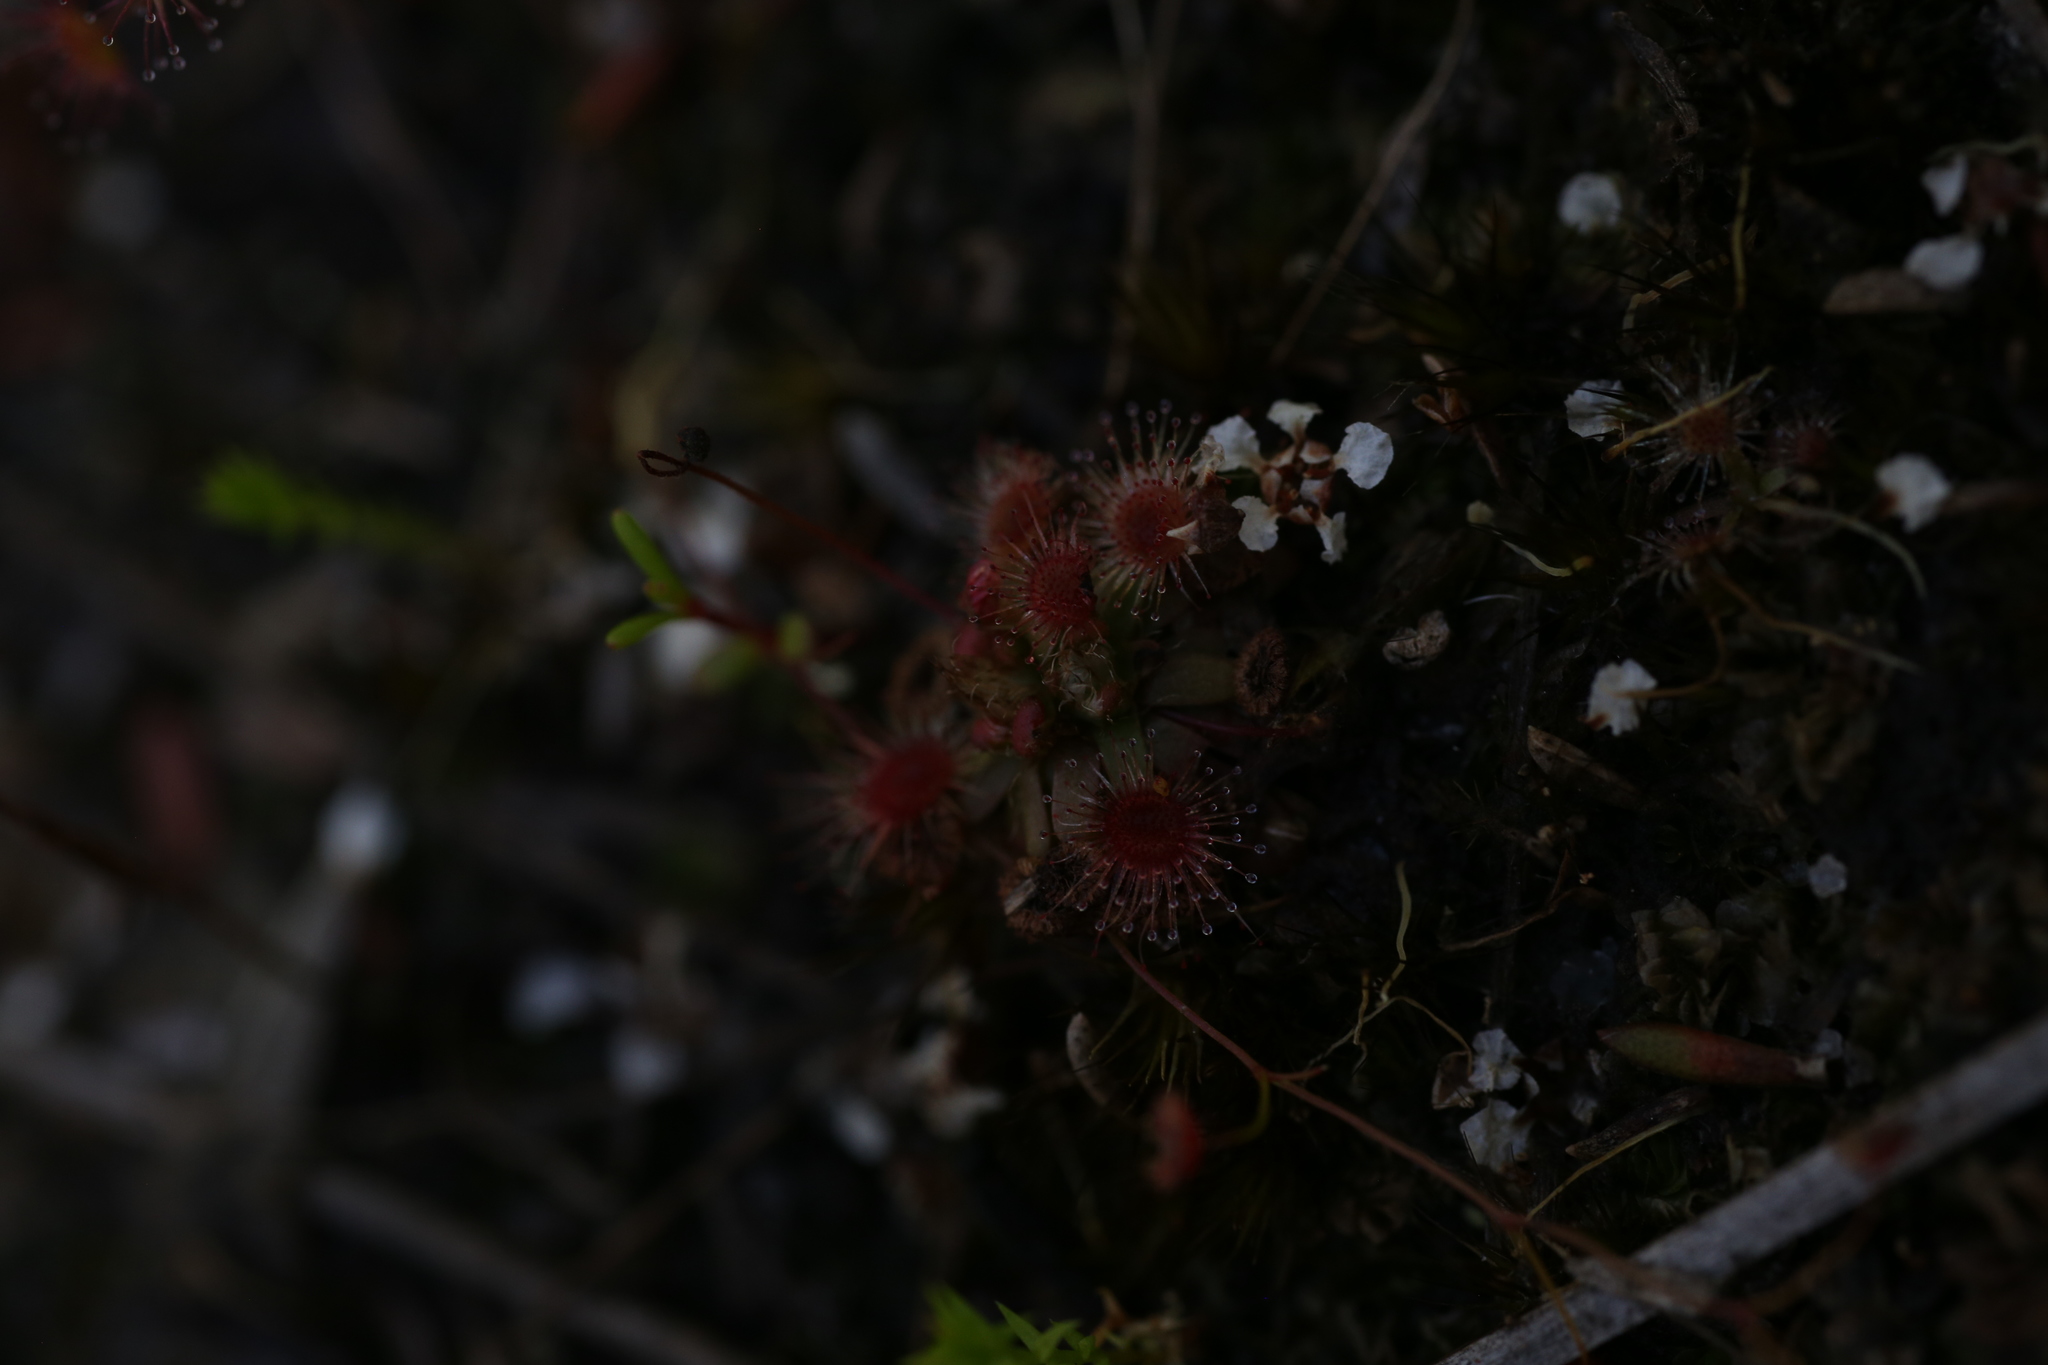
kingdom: Plantae
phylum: Tracheophyta
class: Magnoliopsida
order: Caryophyllales
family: Droseraceae
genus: Drosera
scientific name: Drosera pulchella
